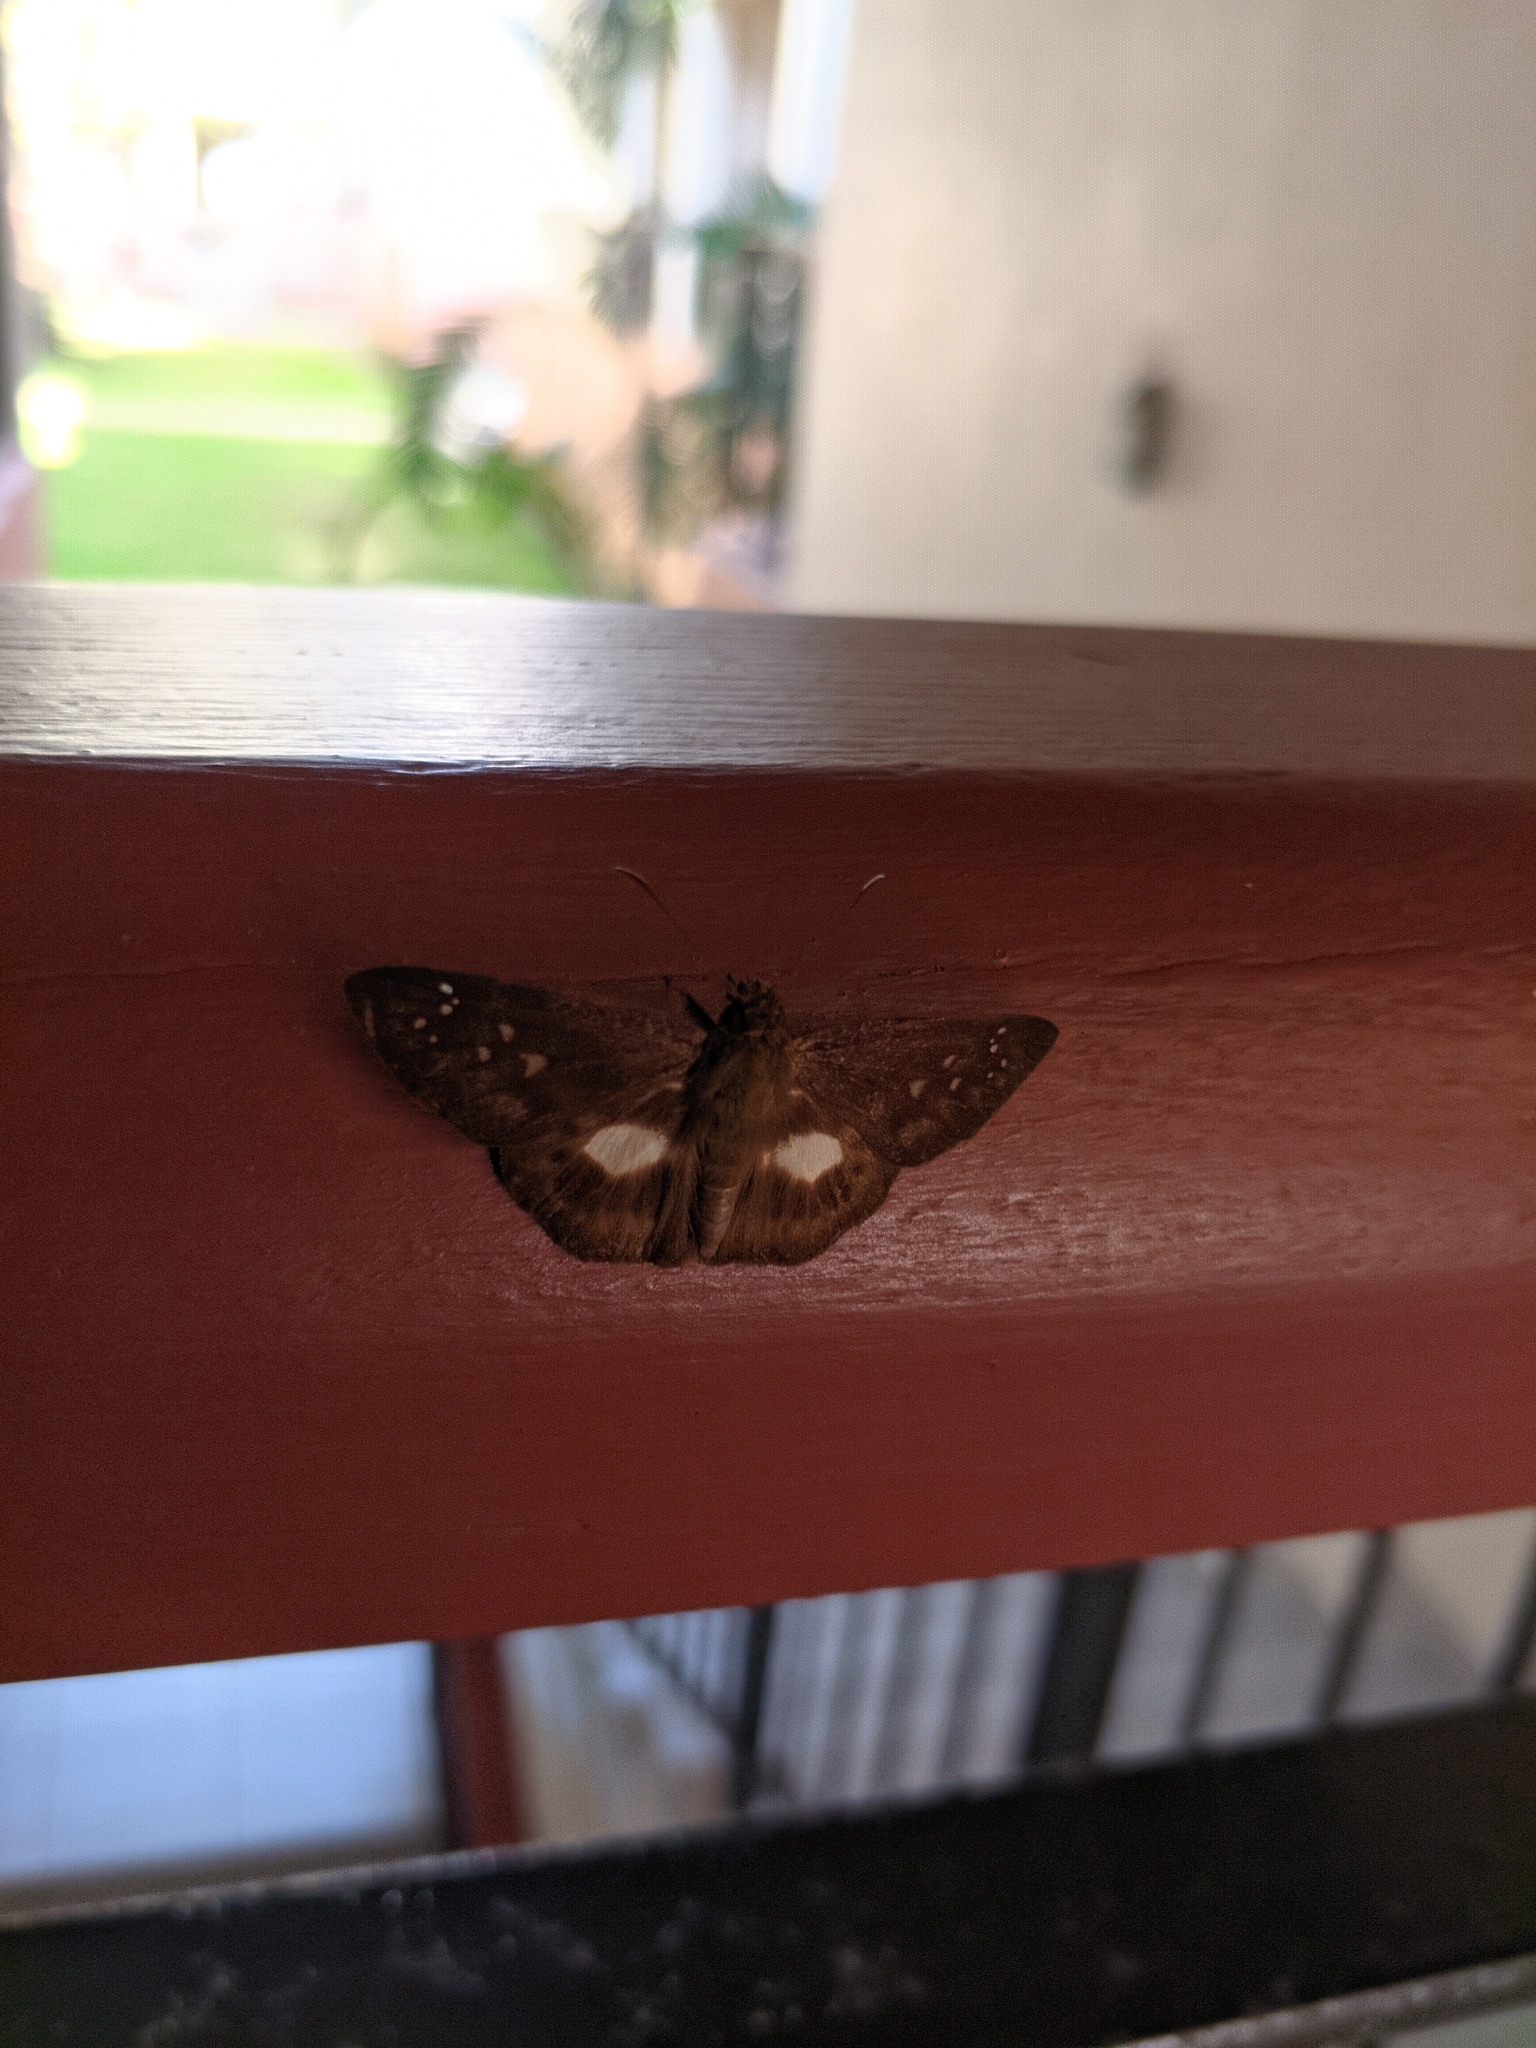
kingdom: Animalia
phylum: Arthropoda
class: Insecta
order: Lepidoptera
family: Hesperiidae
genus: Daimio
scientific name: Daimio
